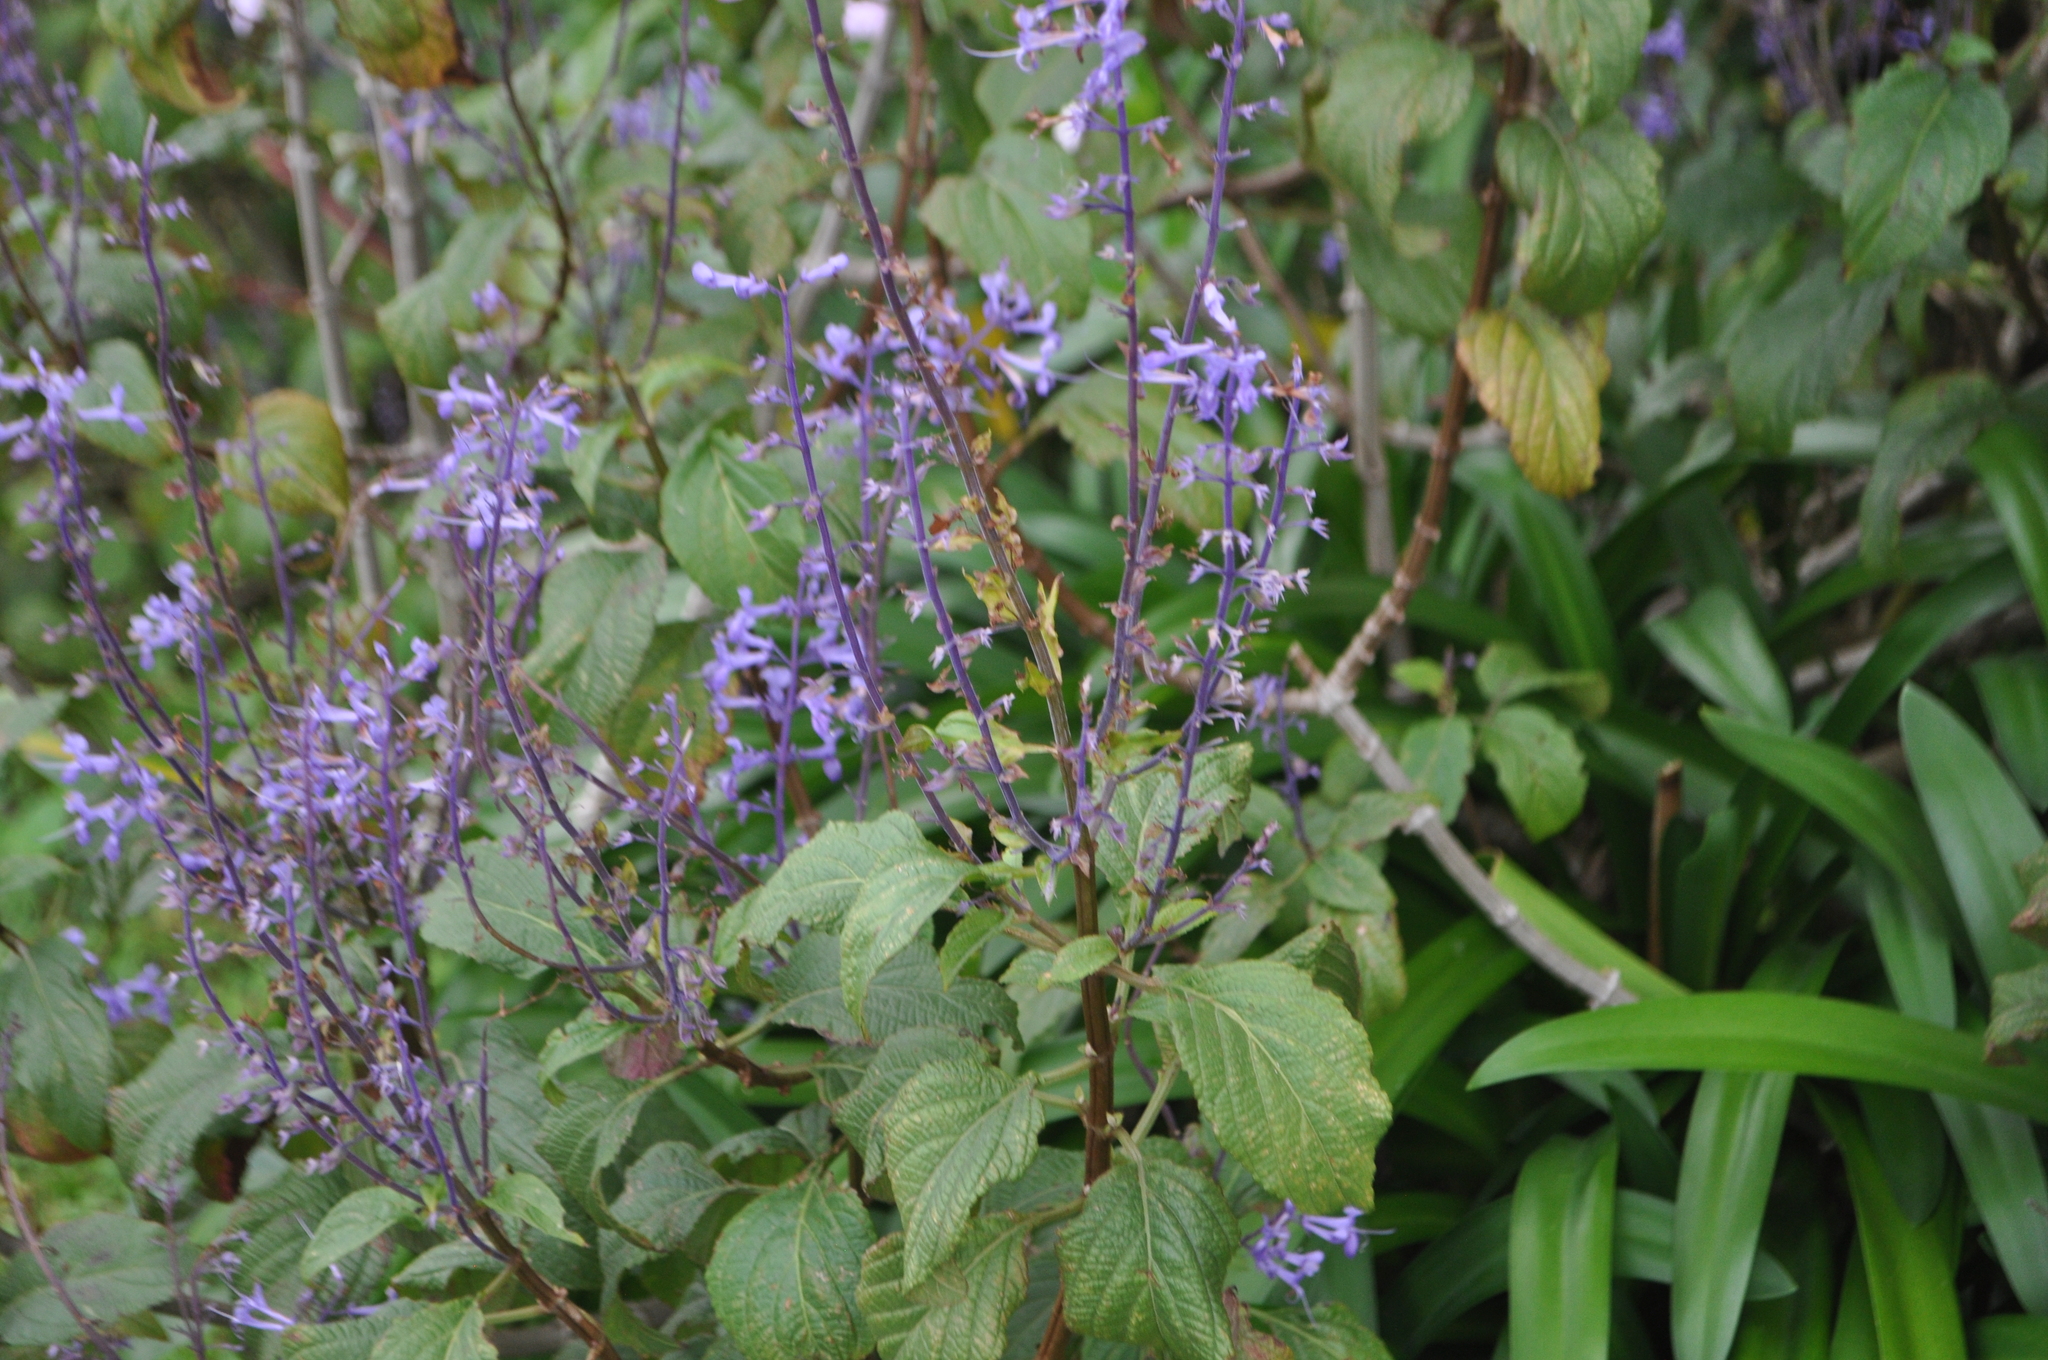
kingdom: Plantae
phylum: Tracheophyta
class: Magnoliopsida
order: Lamiales
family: Lamiaceae
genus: Plectranthus
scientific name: Plectranthus ecklonii
